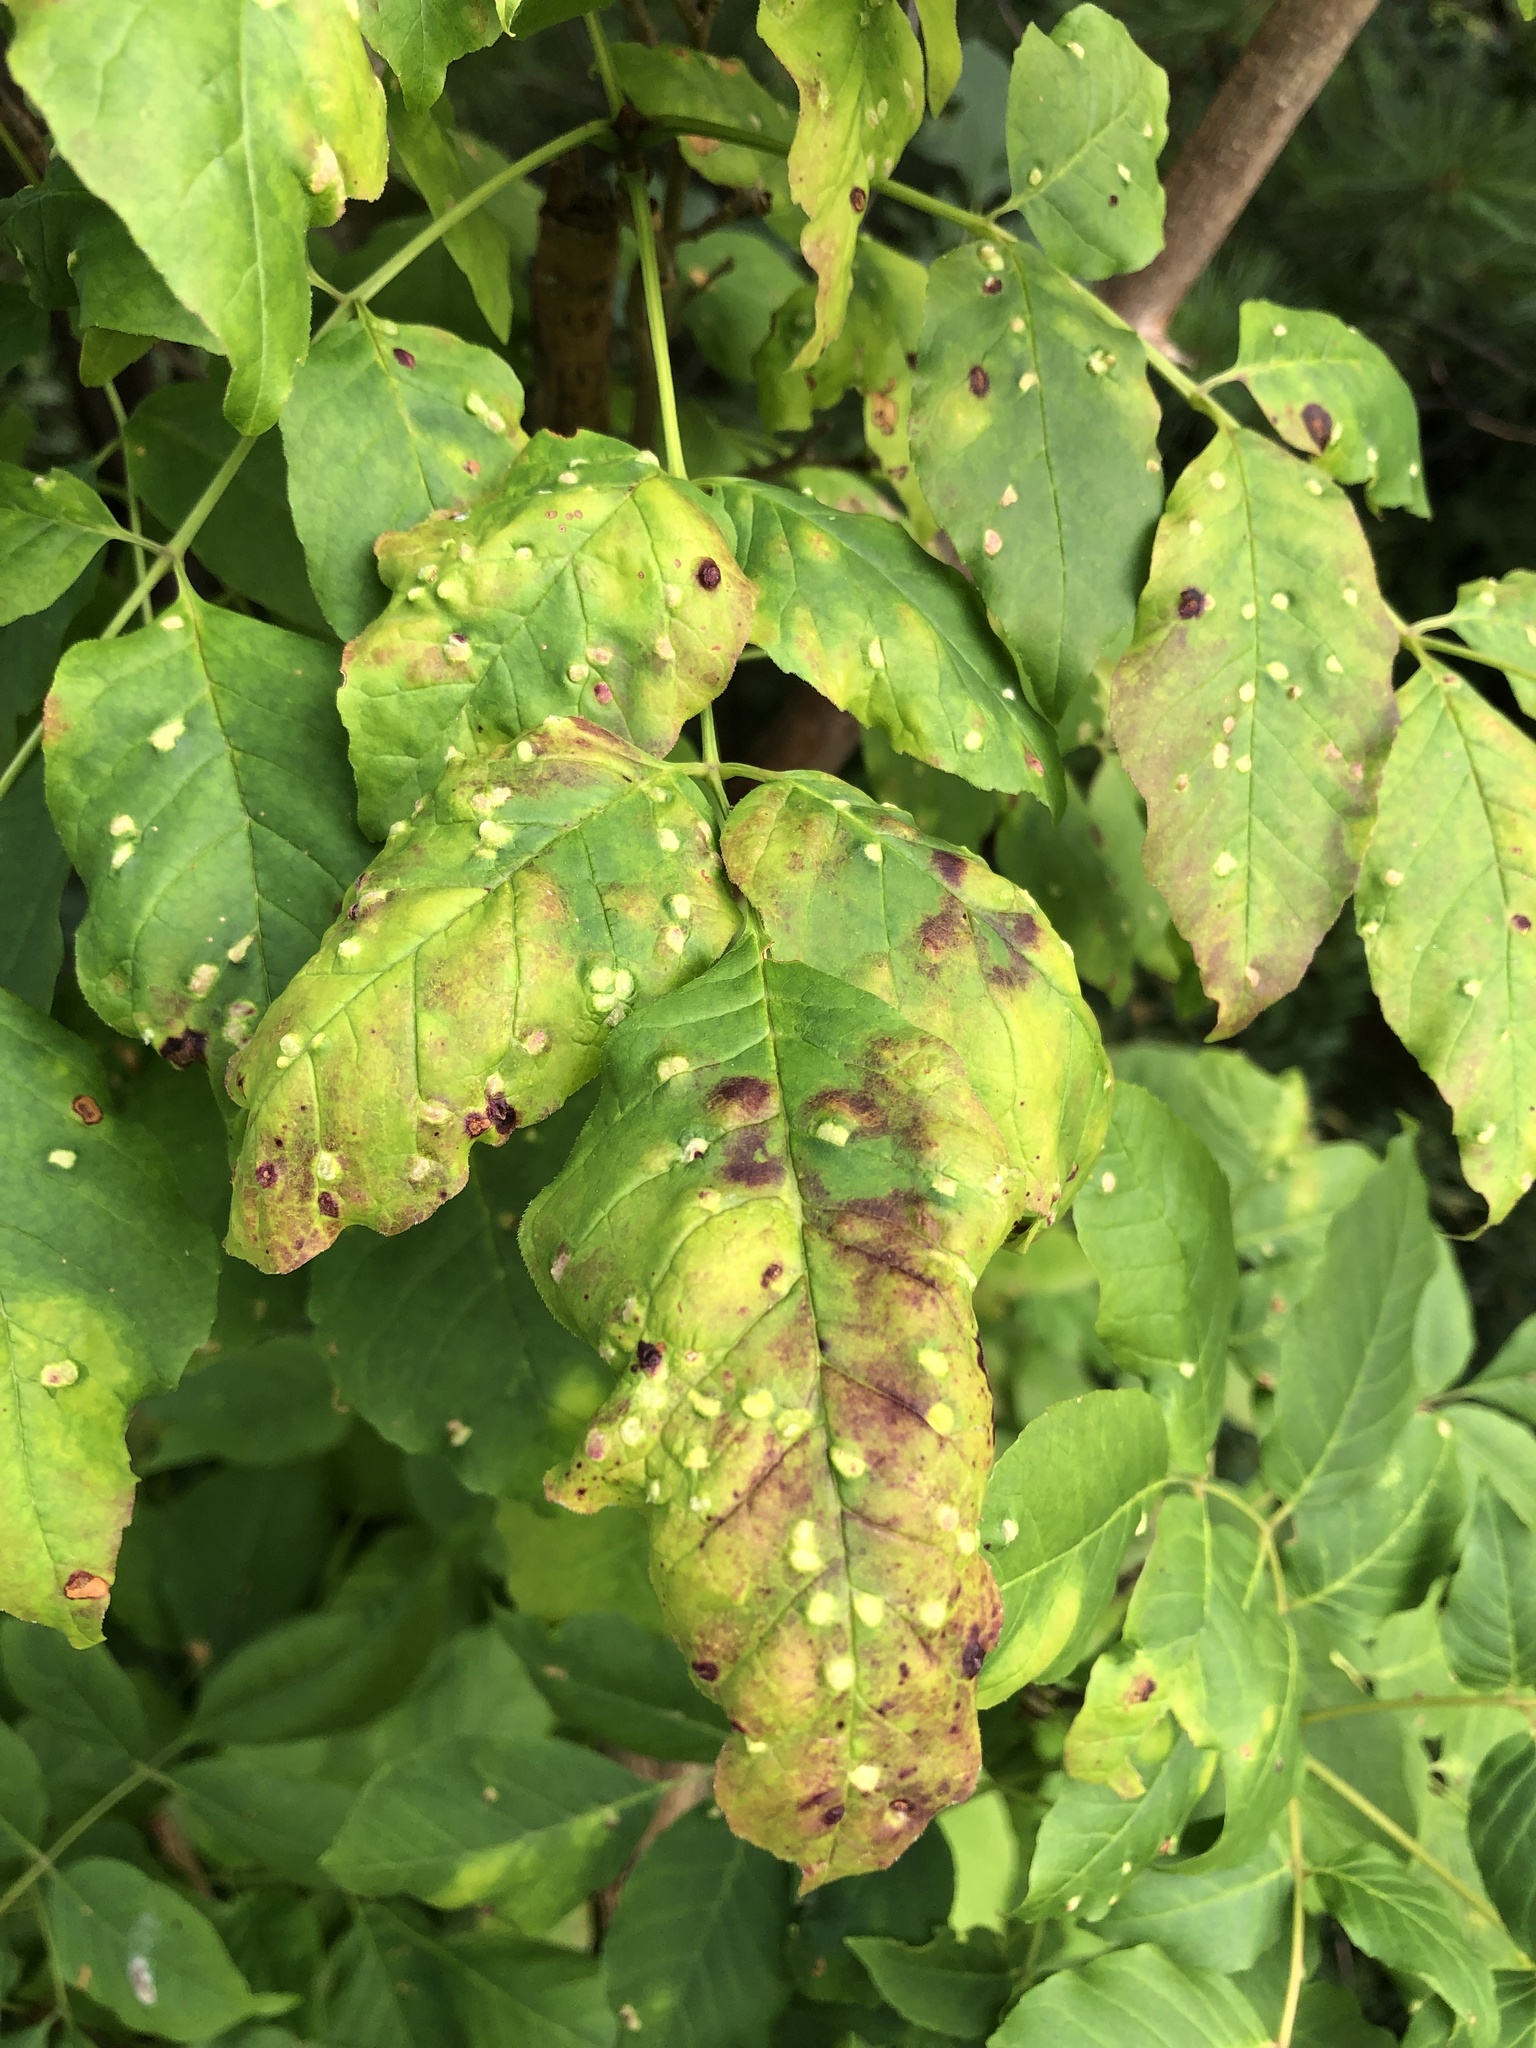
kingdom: Animalia
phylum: Arthropoda
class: Arachnida
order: Trombidiformes
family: Eriophyidae
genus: Aceria
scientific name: Aceria fraxinicola
